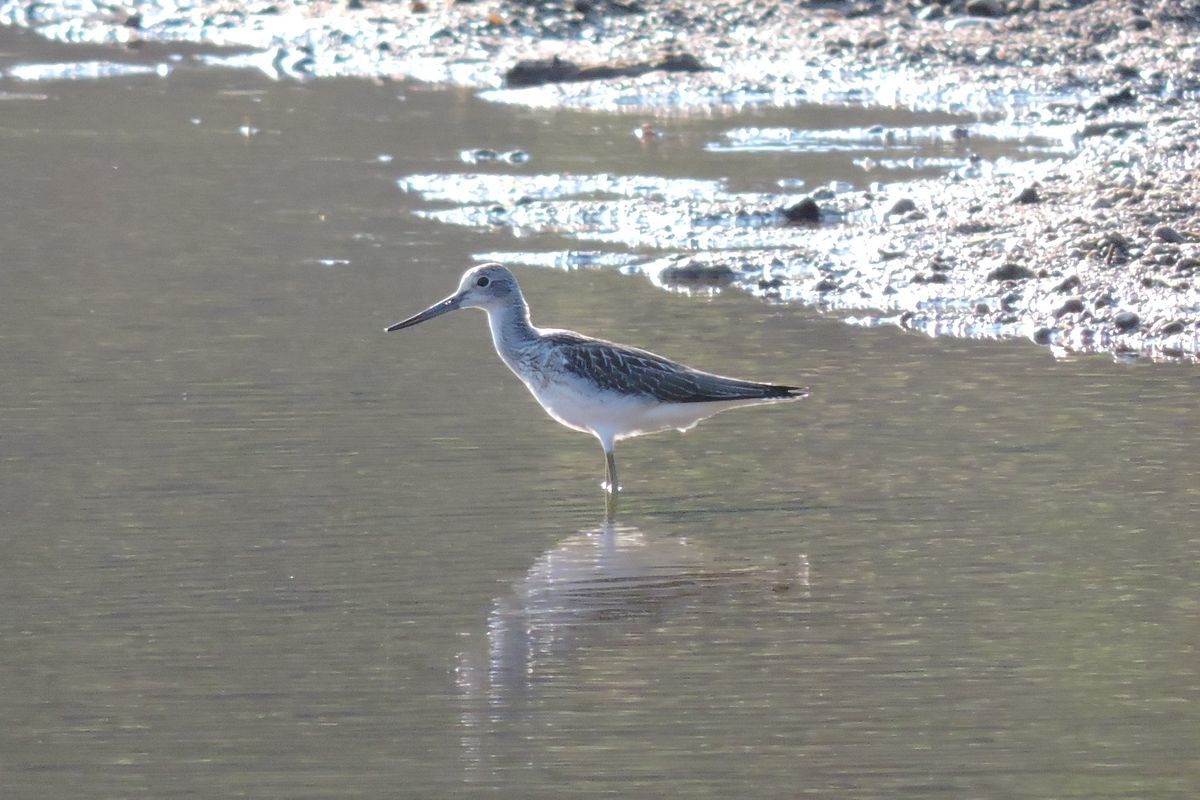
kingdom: Animalia
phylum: Chordata
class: Aves
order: Charadriiformes
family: Scolopacidae
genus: Tringa
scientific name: Tringa nebularia
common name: Common greenshank
